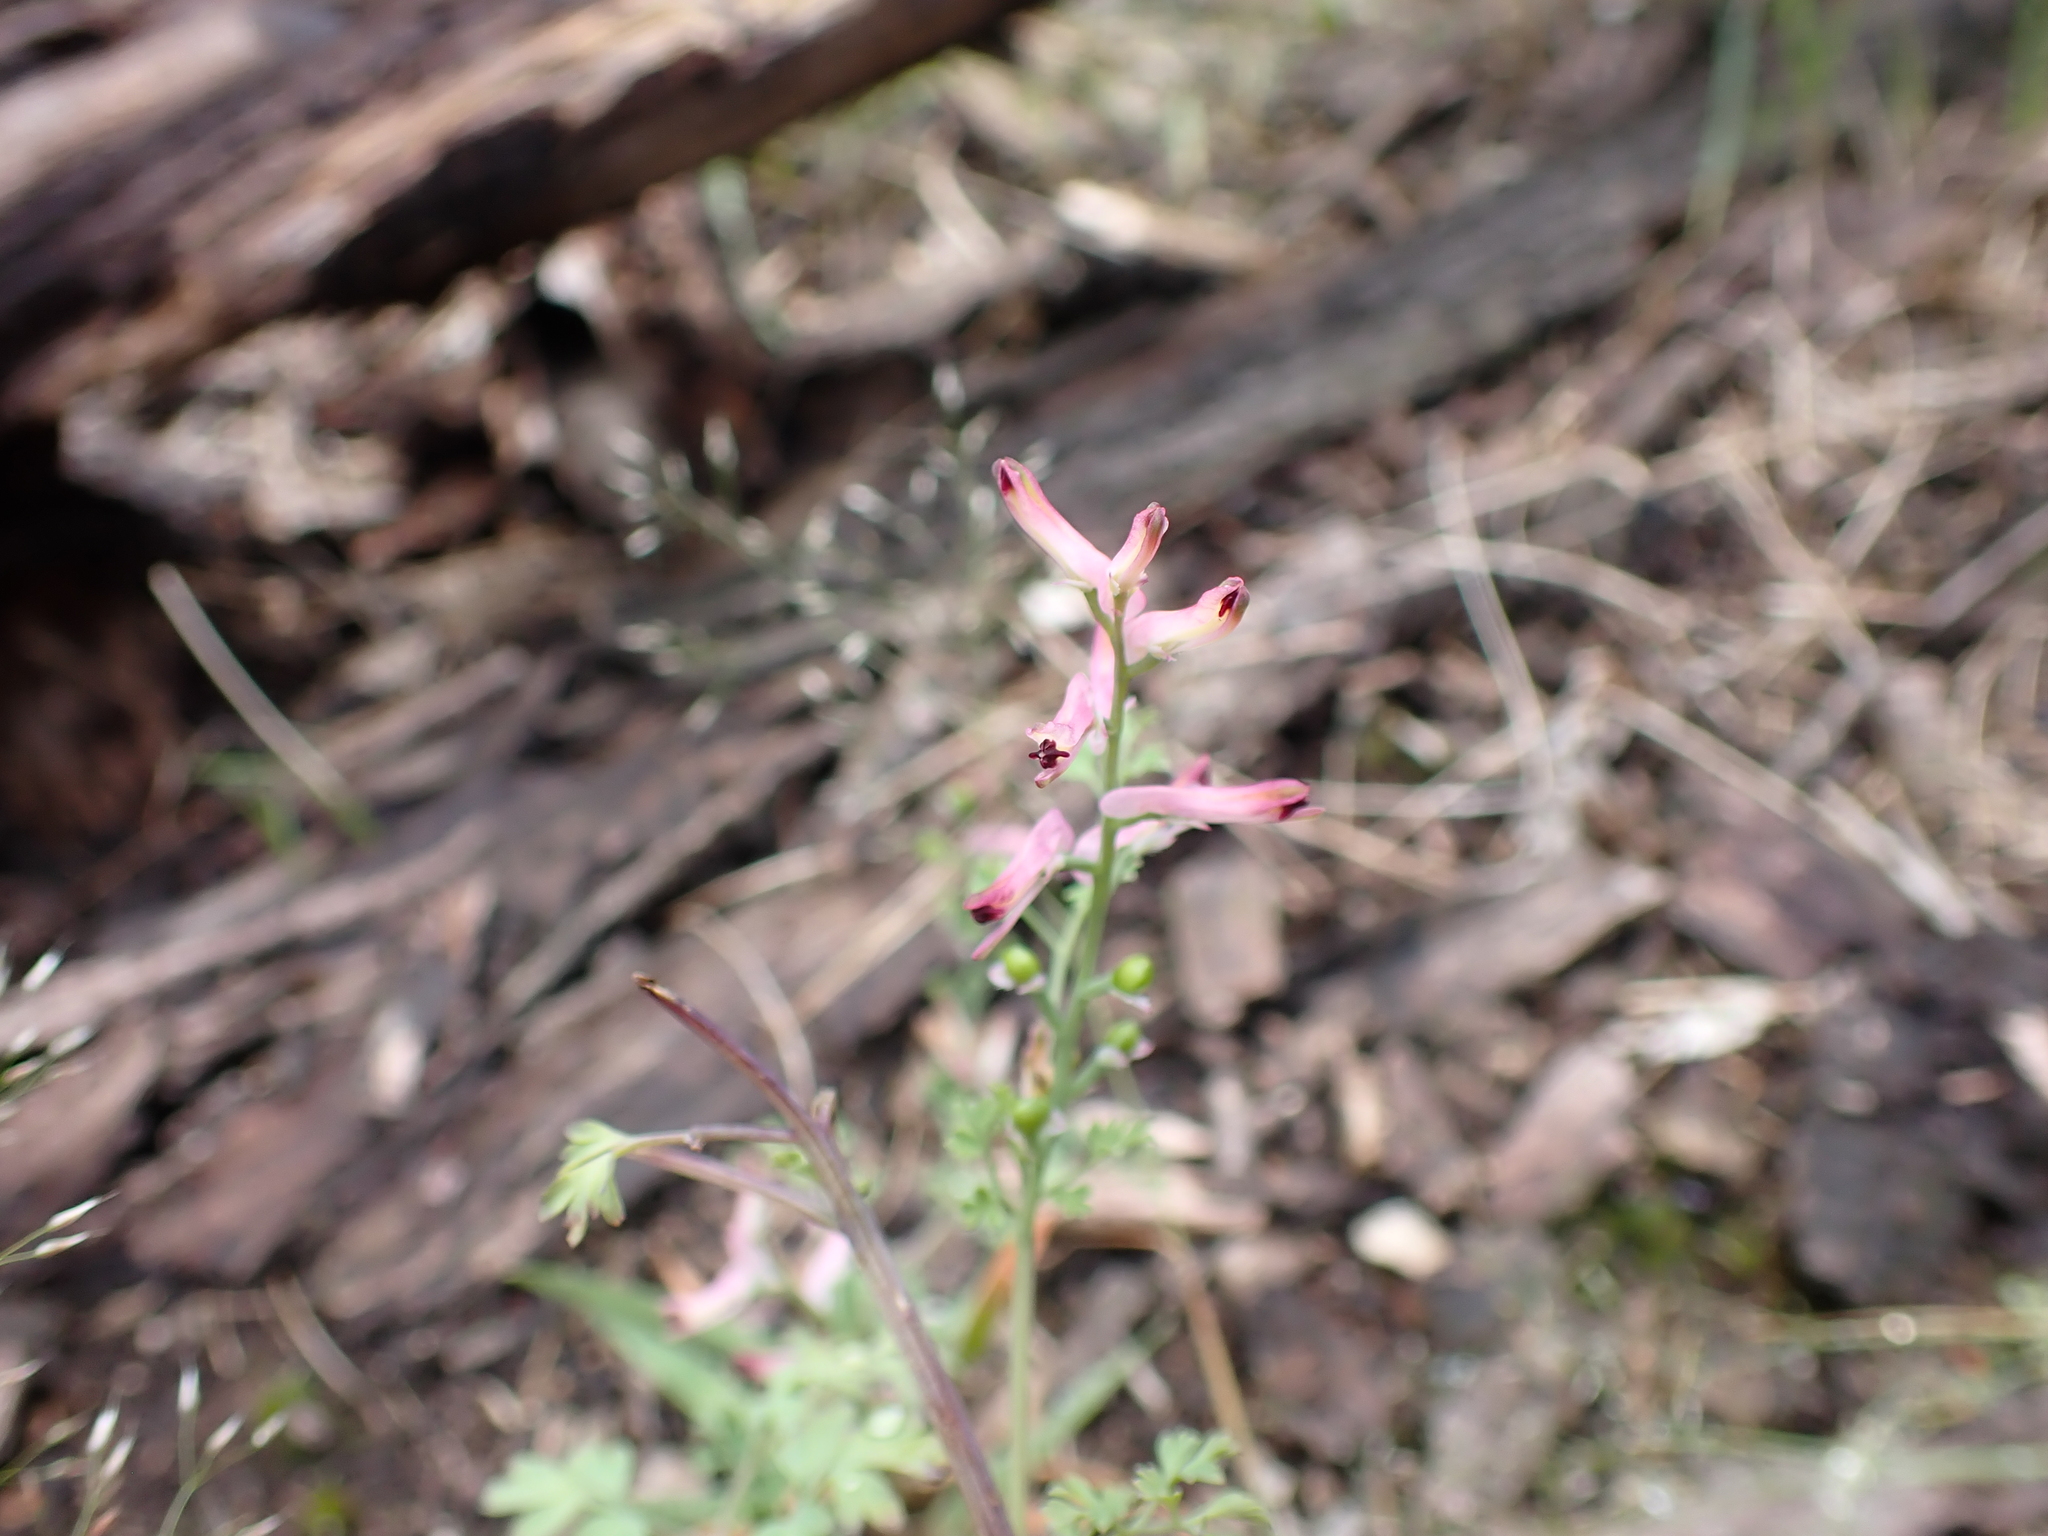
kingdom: Plantae
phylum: Tracheophyta
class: Magnoliopsida
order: Ranunculales
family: Papaveraceae
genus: Fumaria
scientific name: Fumaria bastardii
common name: Tall ramping-fumitory
